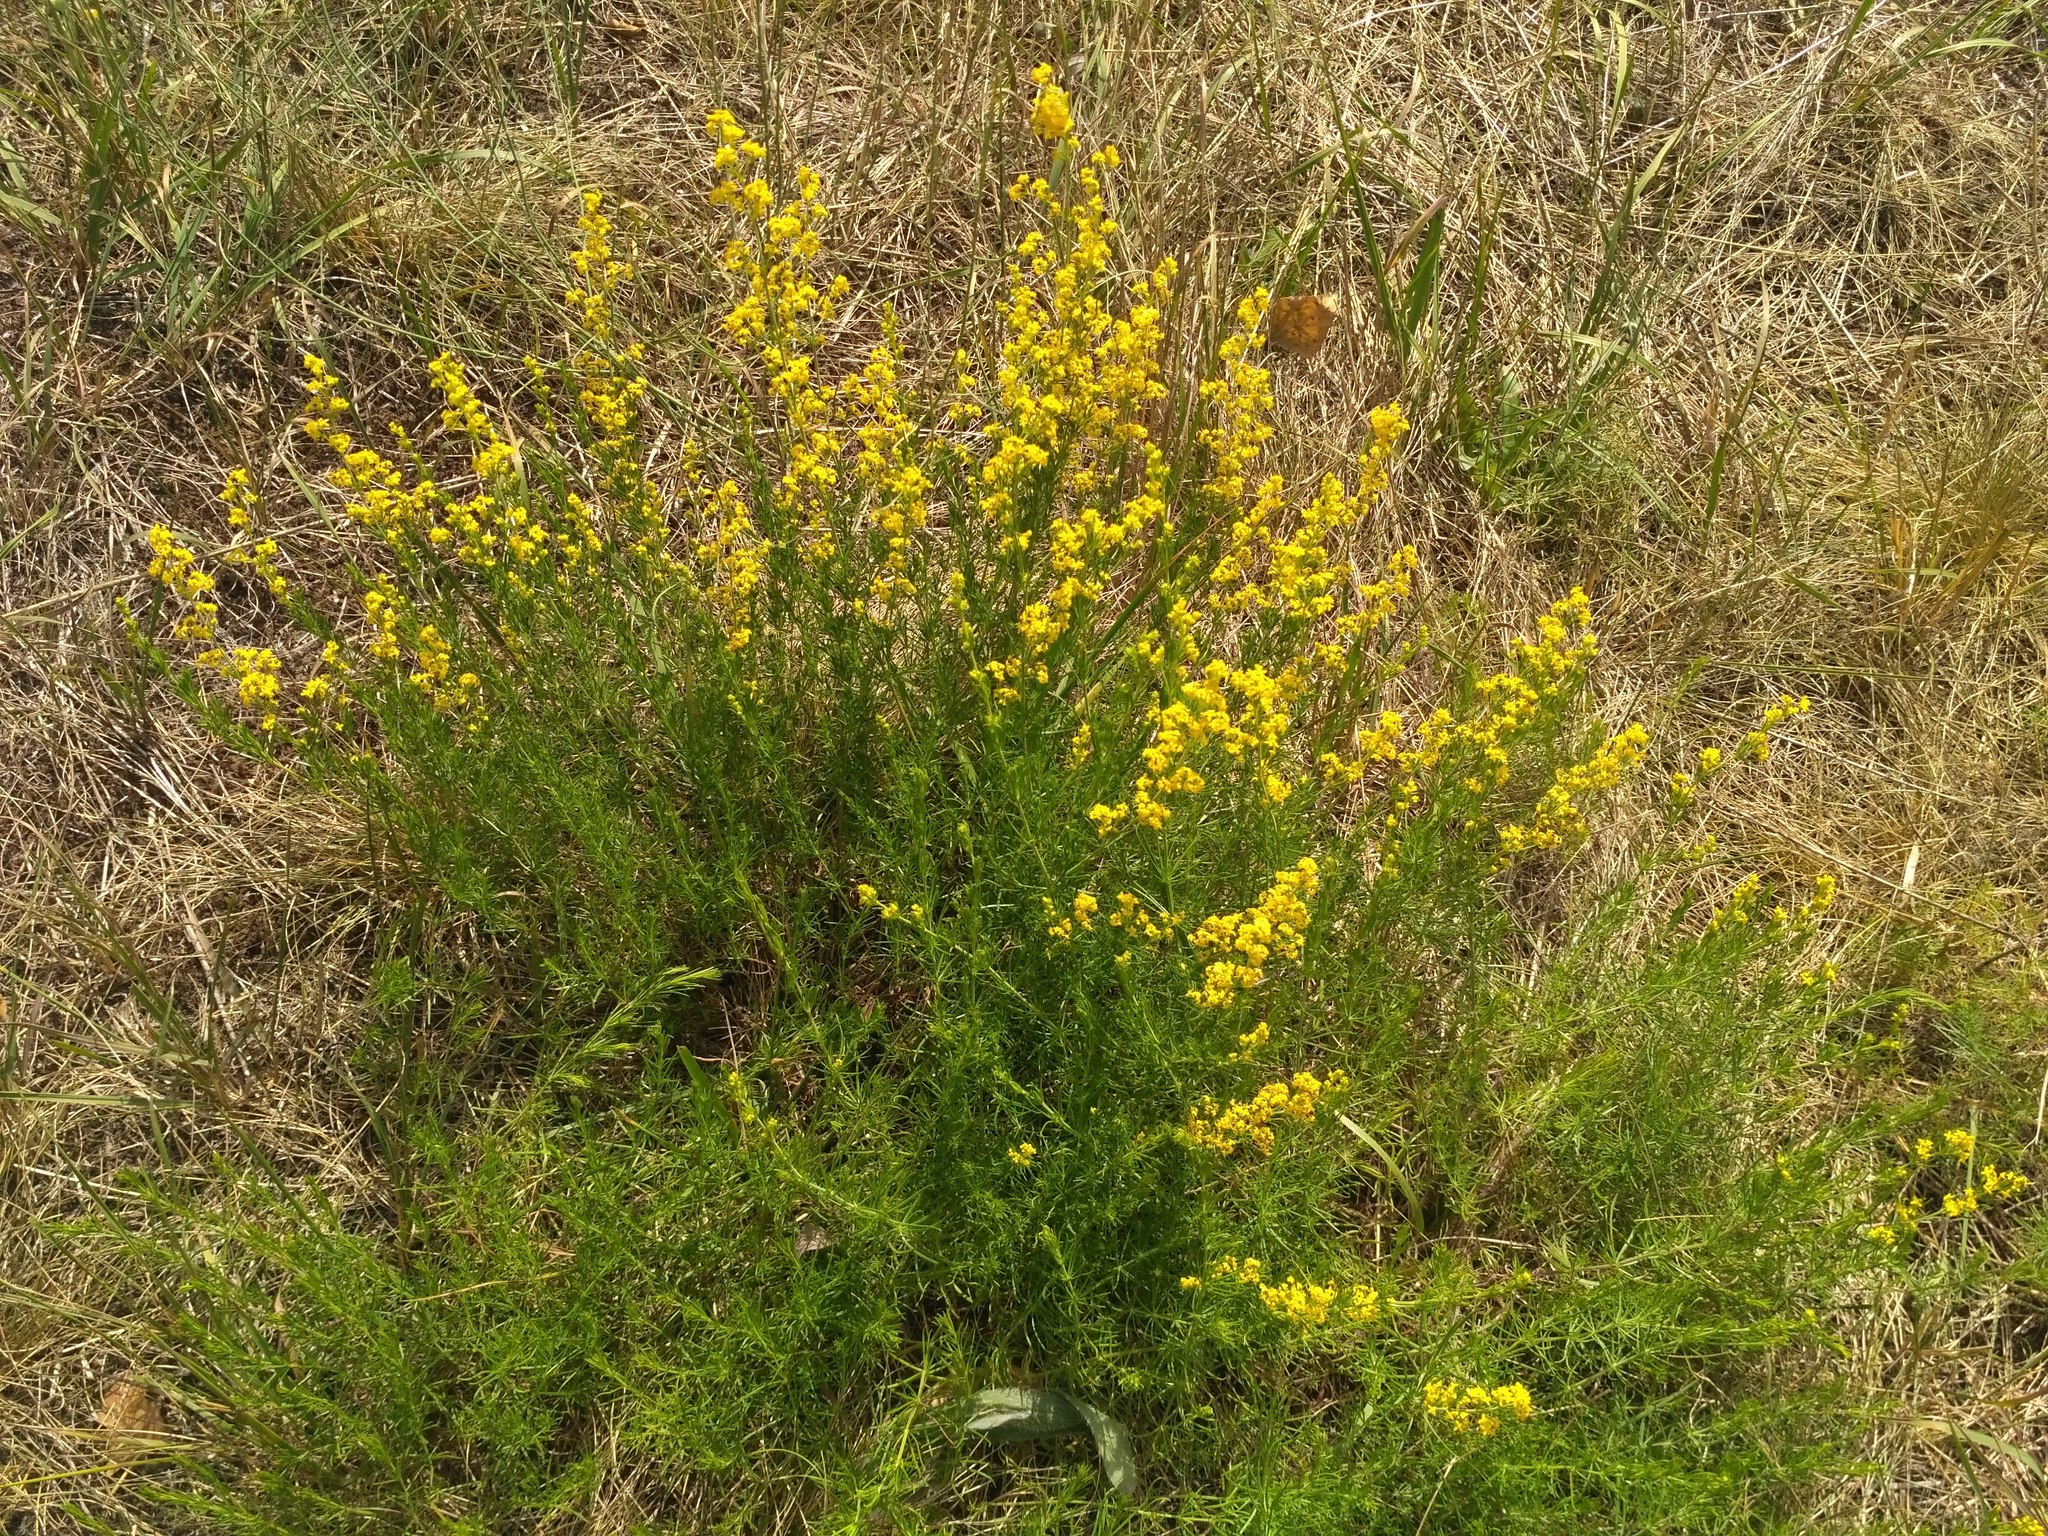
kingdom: Plantae
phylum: Tracheophyta
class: Magnoliopsida
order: Gentianales
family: Rubiaceae
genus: Galium
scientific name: Galium verum
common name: Lady's bedstraw
